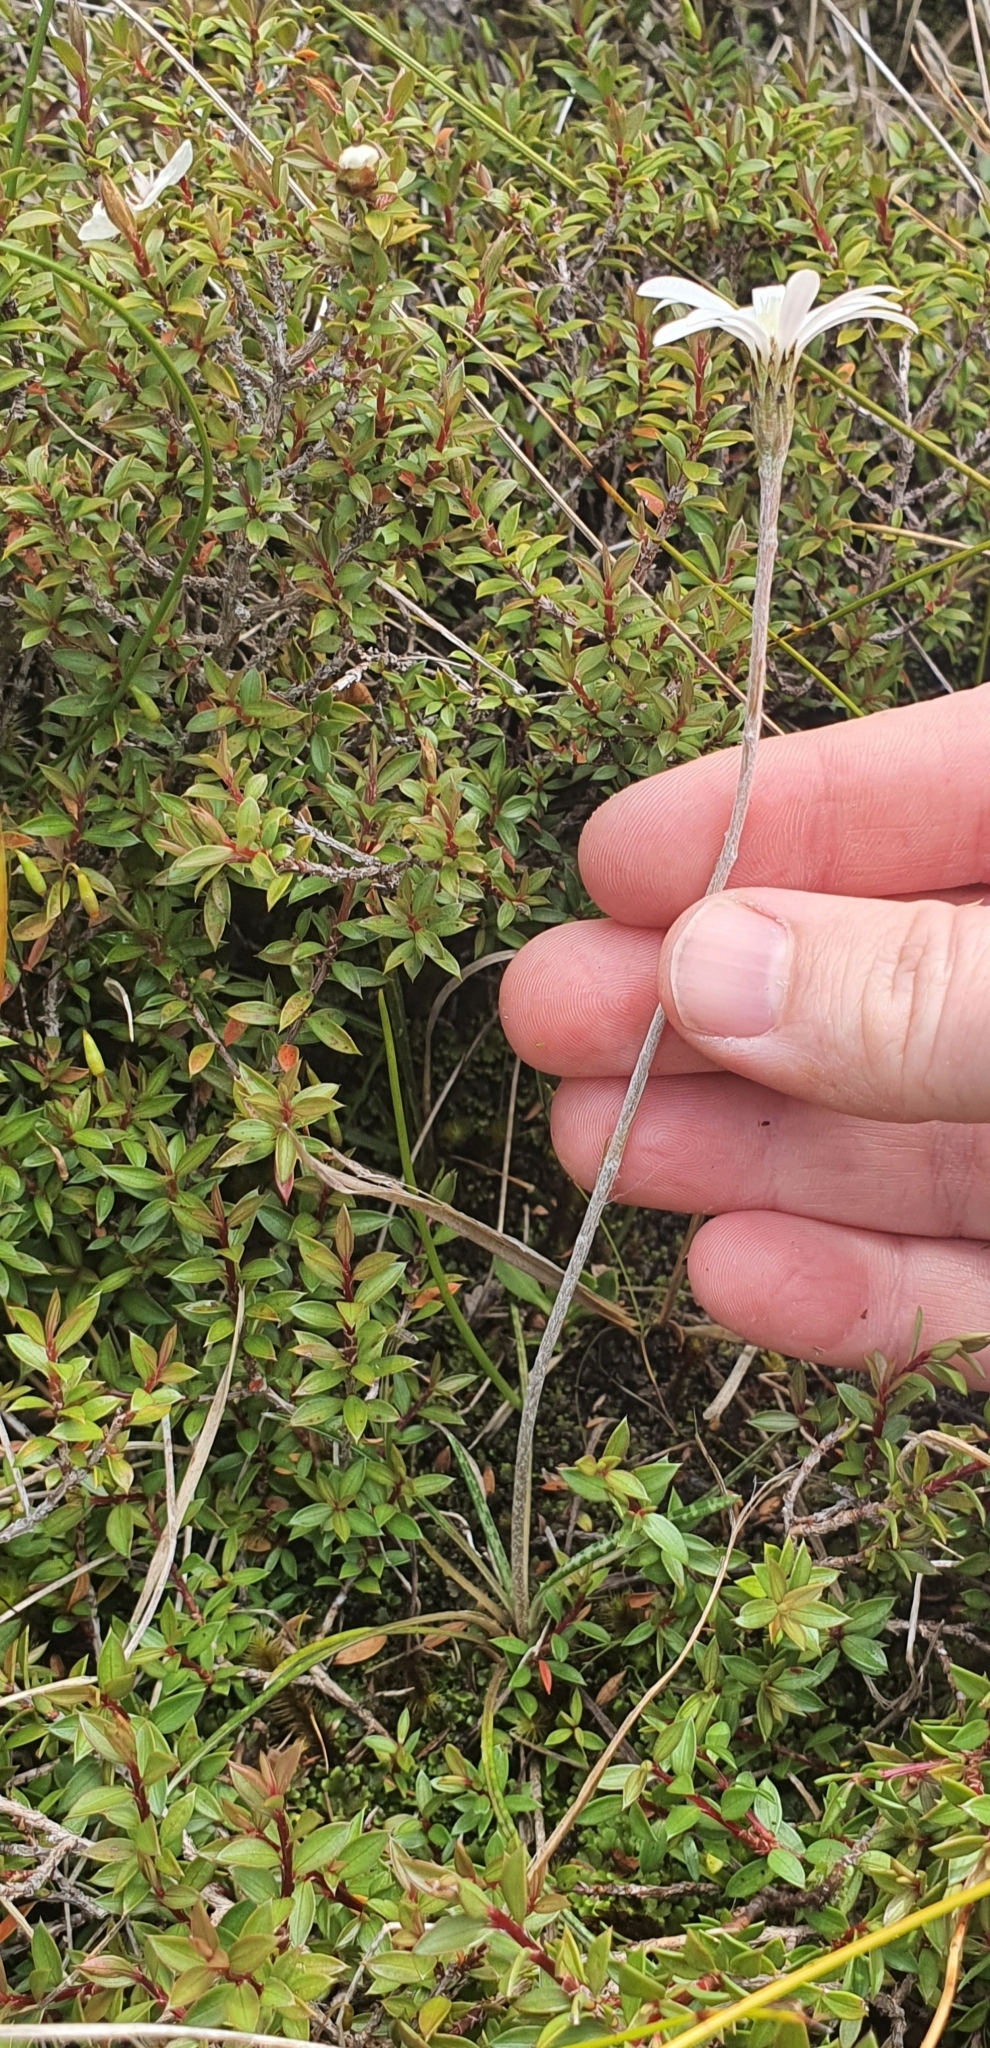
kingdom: Plantae
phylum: Tracheophyta
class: Magnoliopsida
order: Asterales
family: Asteraceae
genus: Celmisia
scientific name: Celmisia gracilenta
